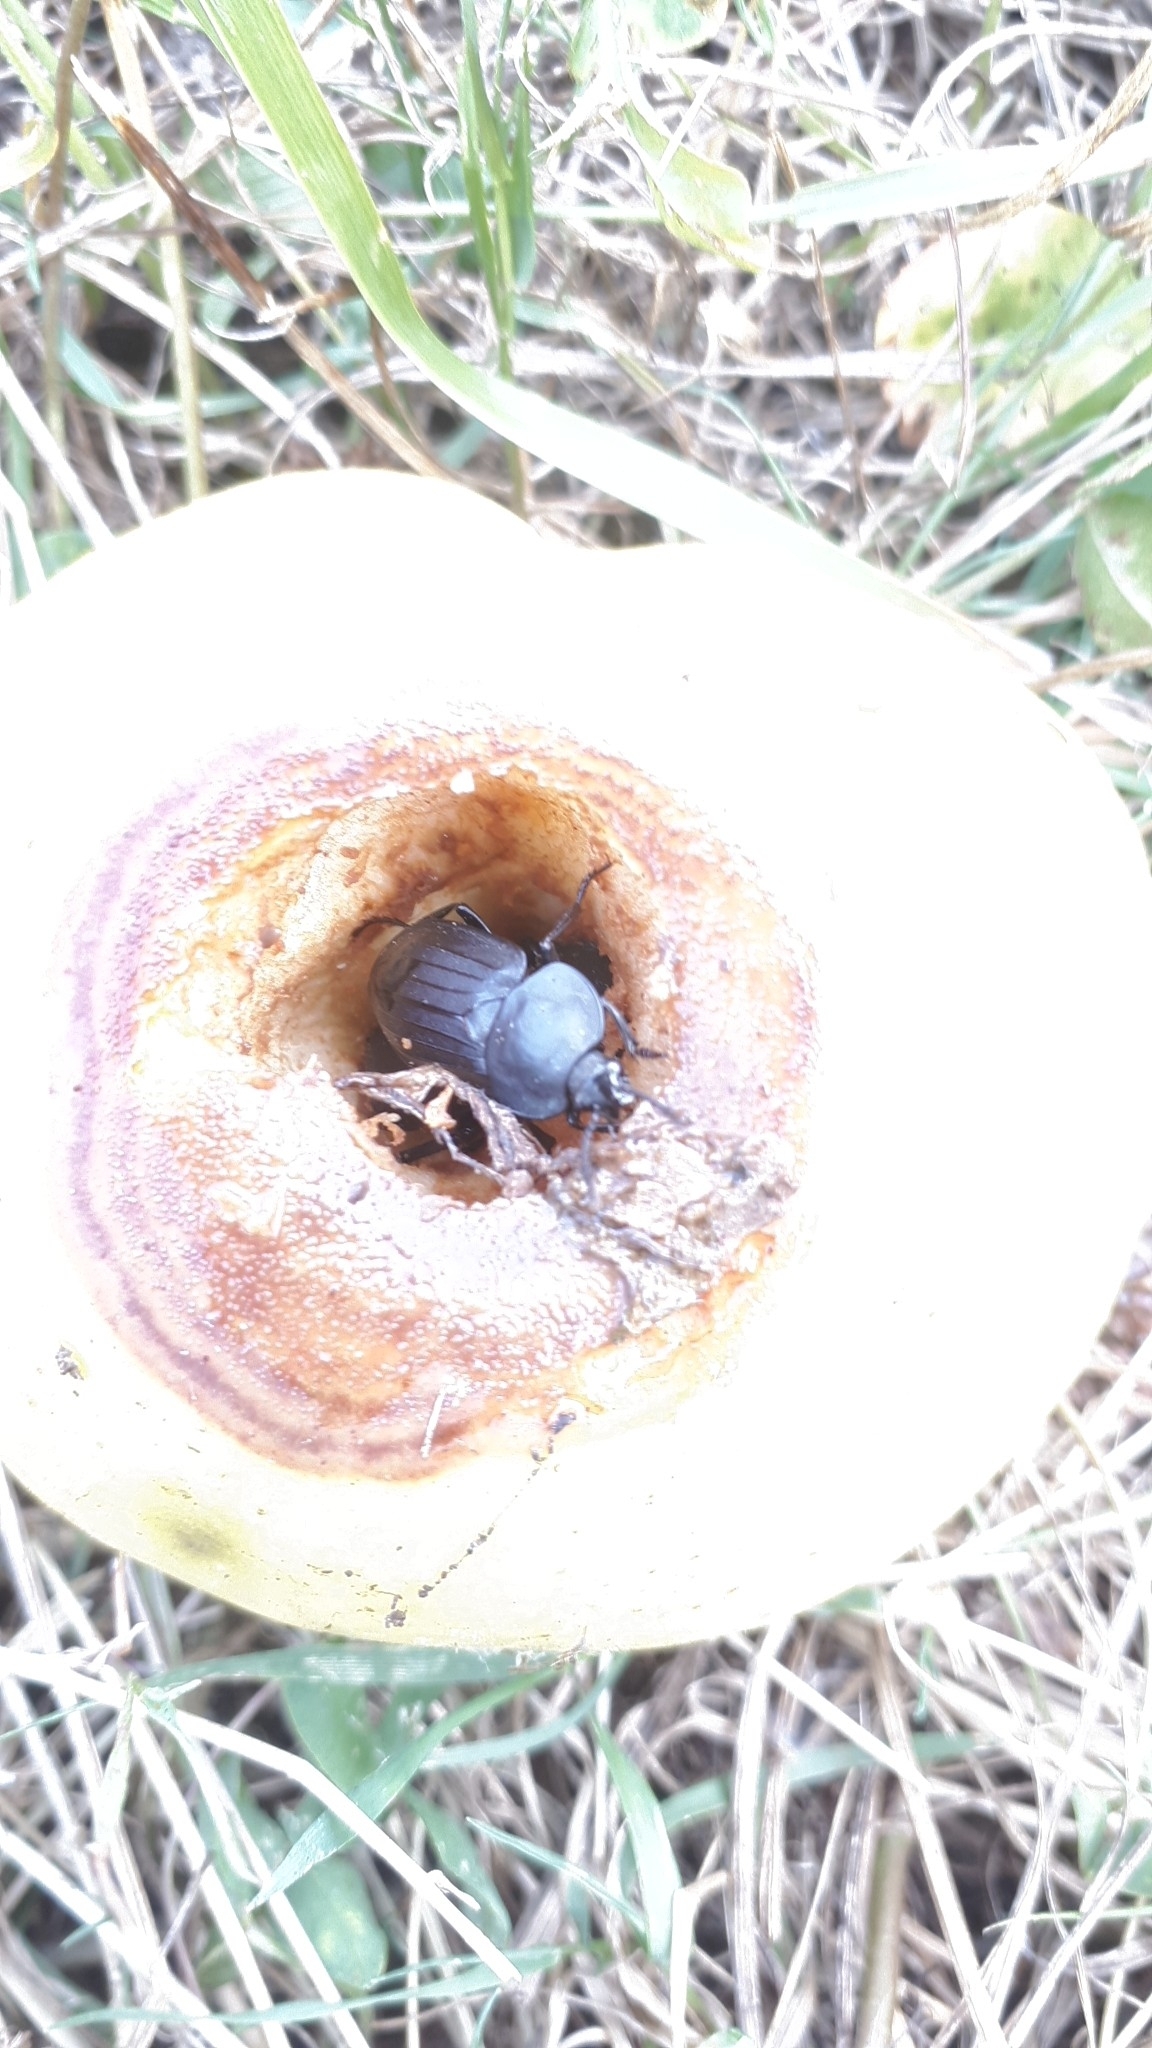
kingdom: Animalia
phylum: Arthropoda
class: Insecta
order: Coleoptera
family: Staphylinidae
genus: Silpha
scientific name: Silpha tristis
